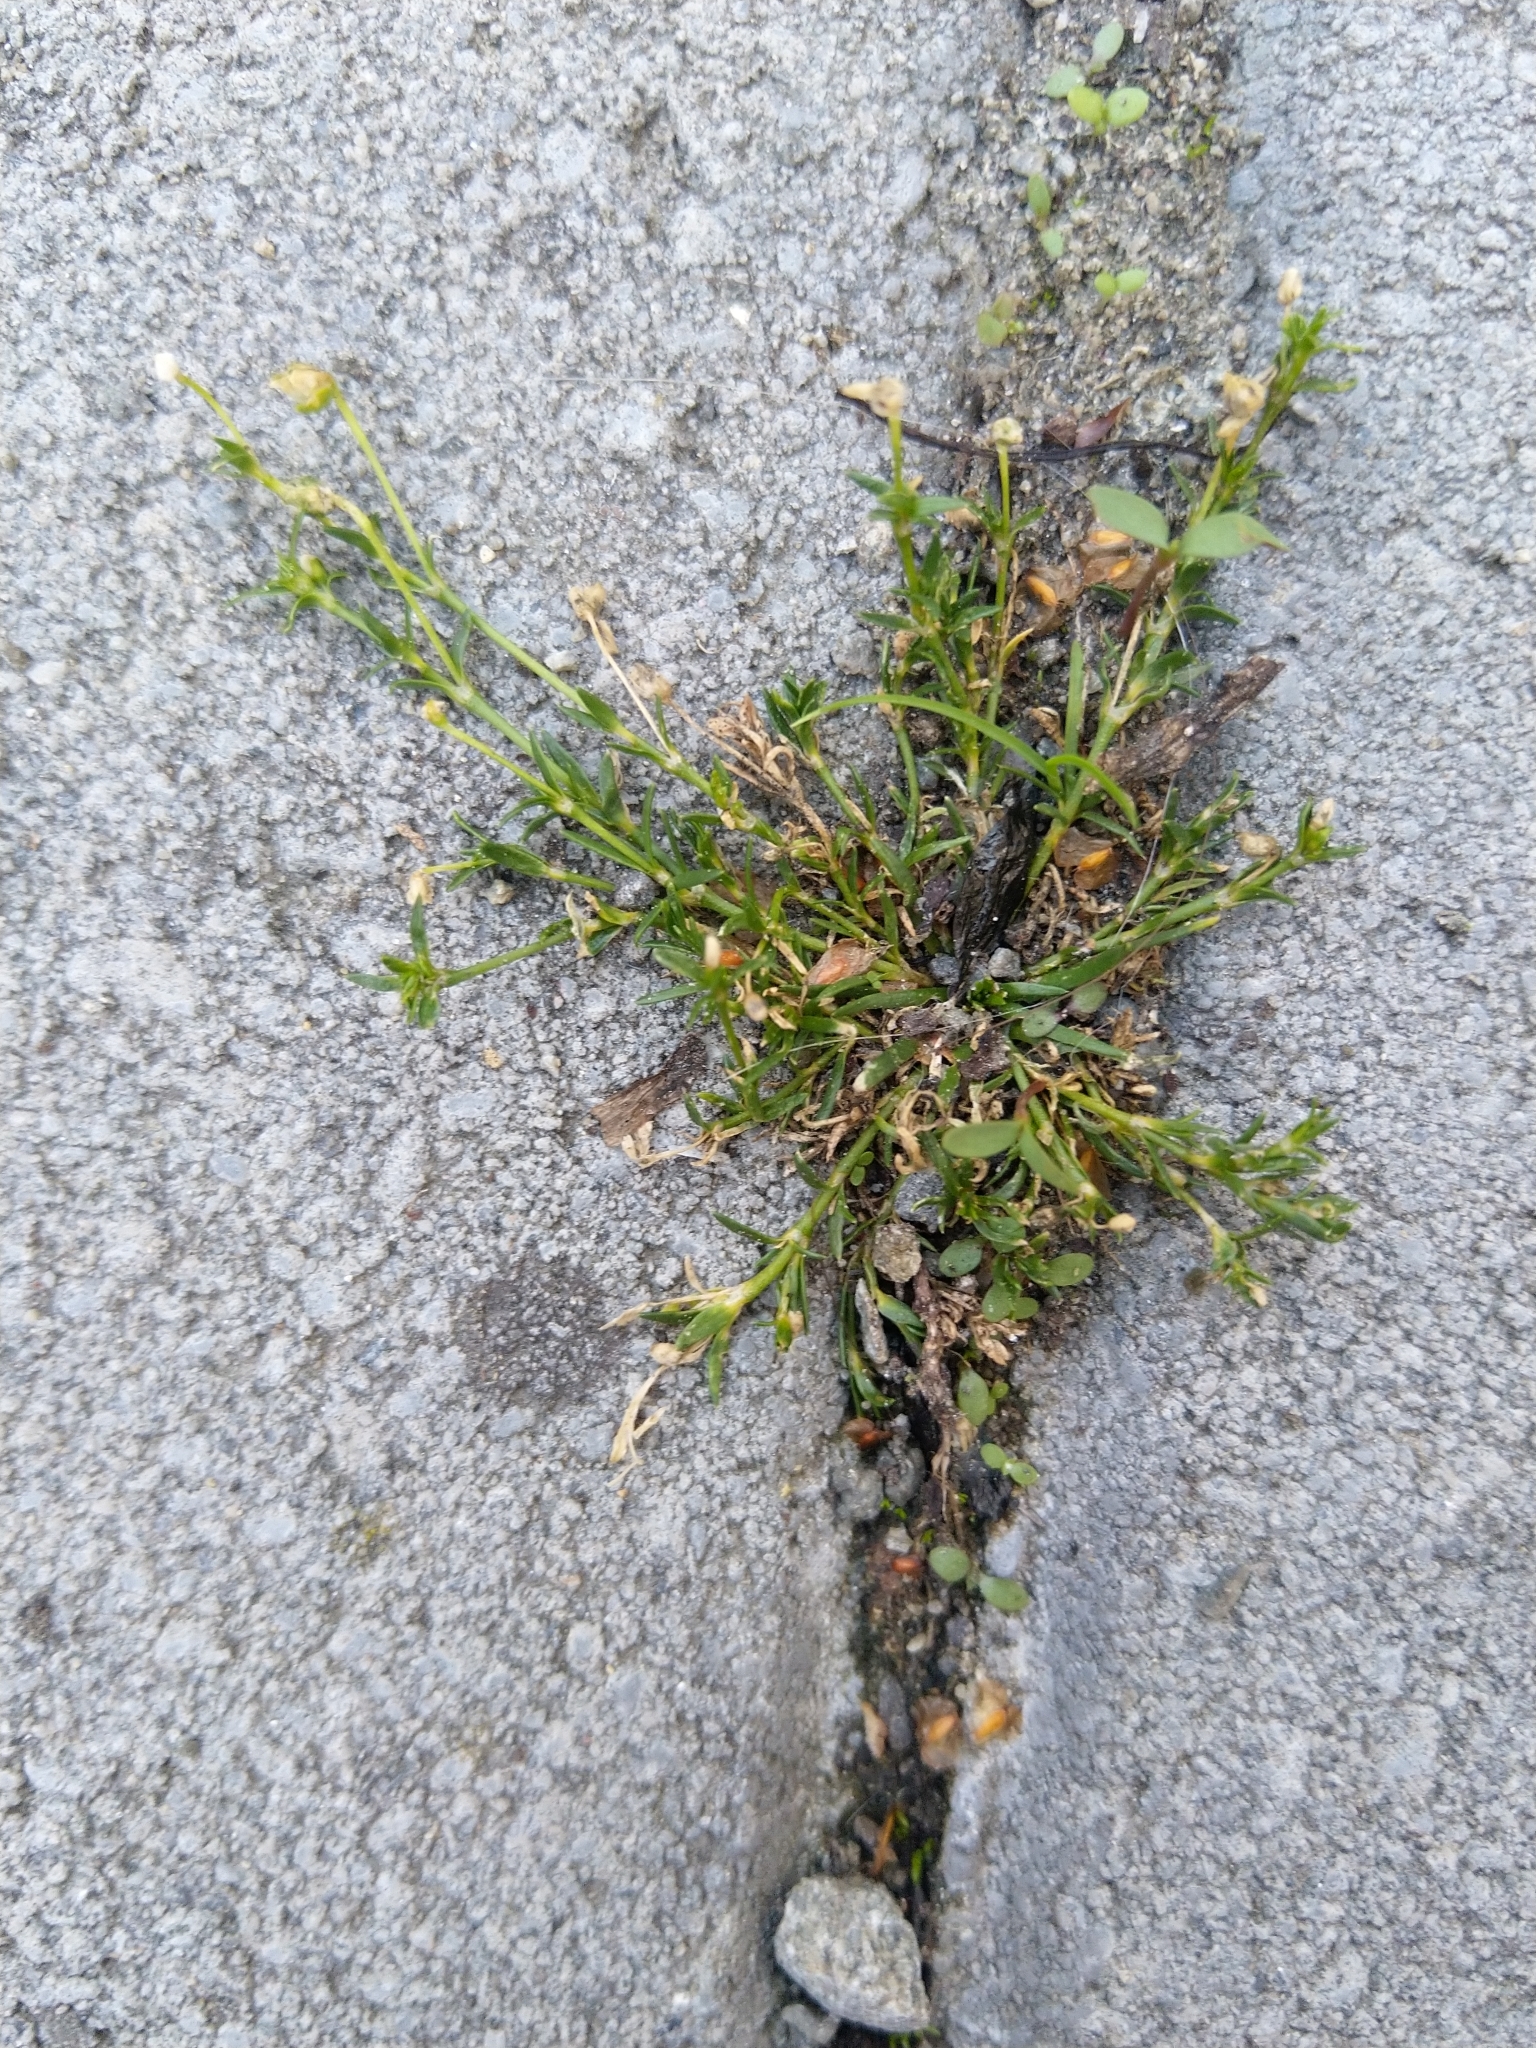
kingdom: Plantae
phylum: Tracheophyta
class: Magnoliopsida
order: Caryophyllales
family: Caryophyllaceae
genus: Sagina
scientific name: Sagina procumbens
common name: Procumbent pearlwort
